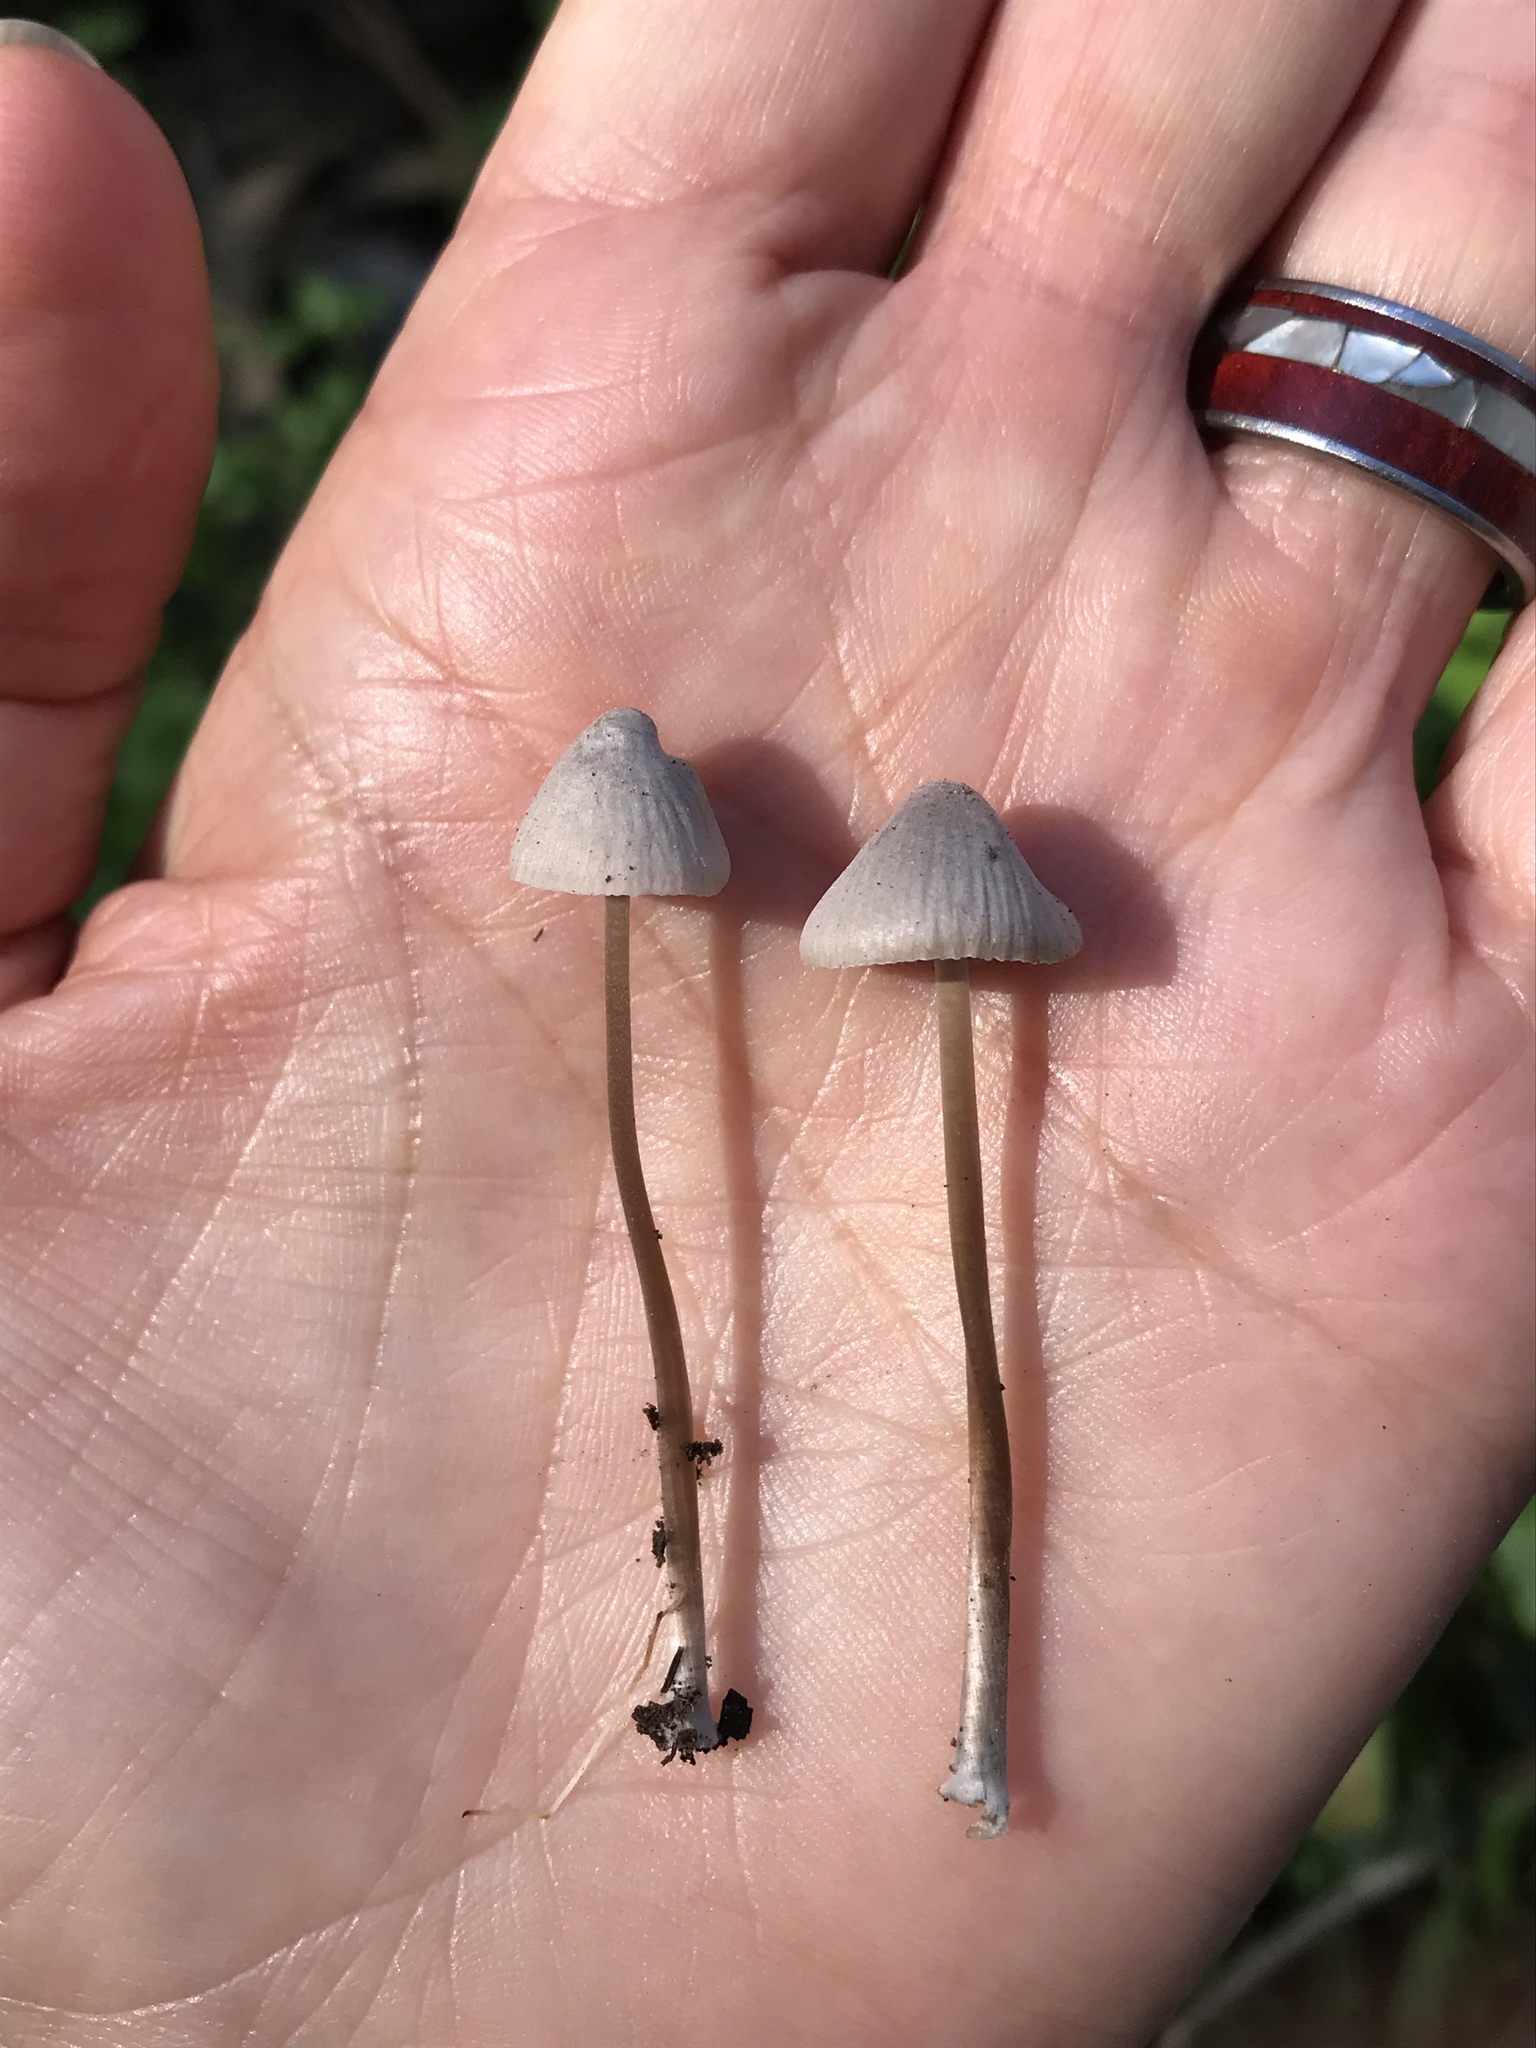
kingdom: Fungi
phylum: Basidiomycota
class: Agaricomycetes
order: Agaricales
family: Mycenaceae
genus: Mycena
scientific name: Mycena leptocephala
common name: Nitrous bonnet
